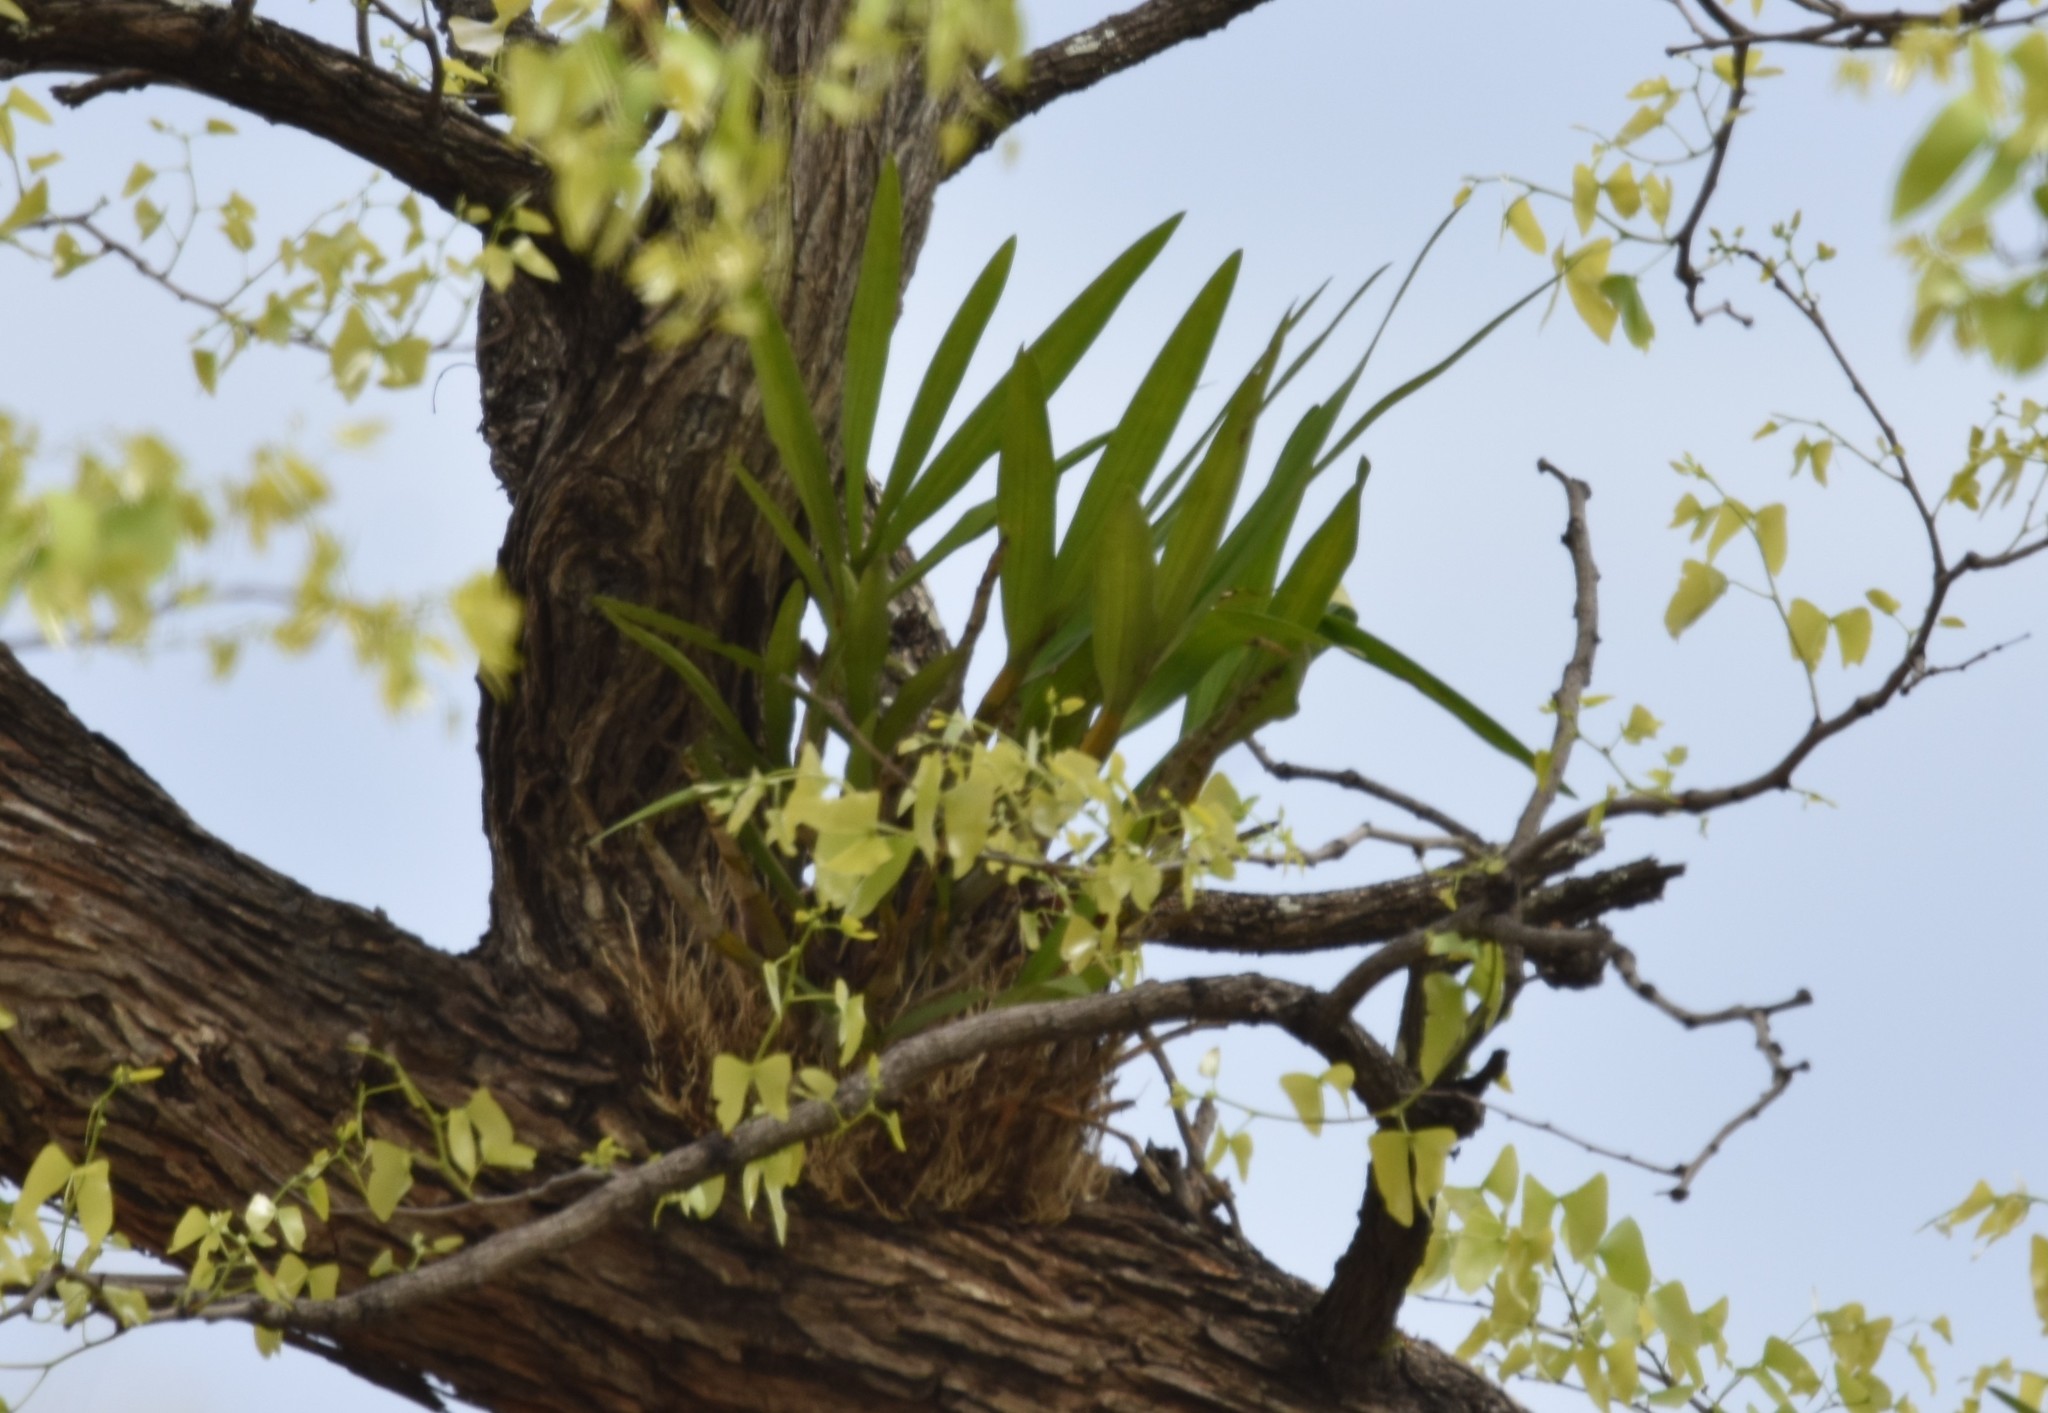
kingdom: Plantae
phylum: Tracheophyta
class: Liliopsida
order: Asparagales
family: Orchidaceae
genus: Ansellia
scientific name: Ansellia africana
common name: African ansellia
